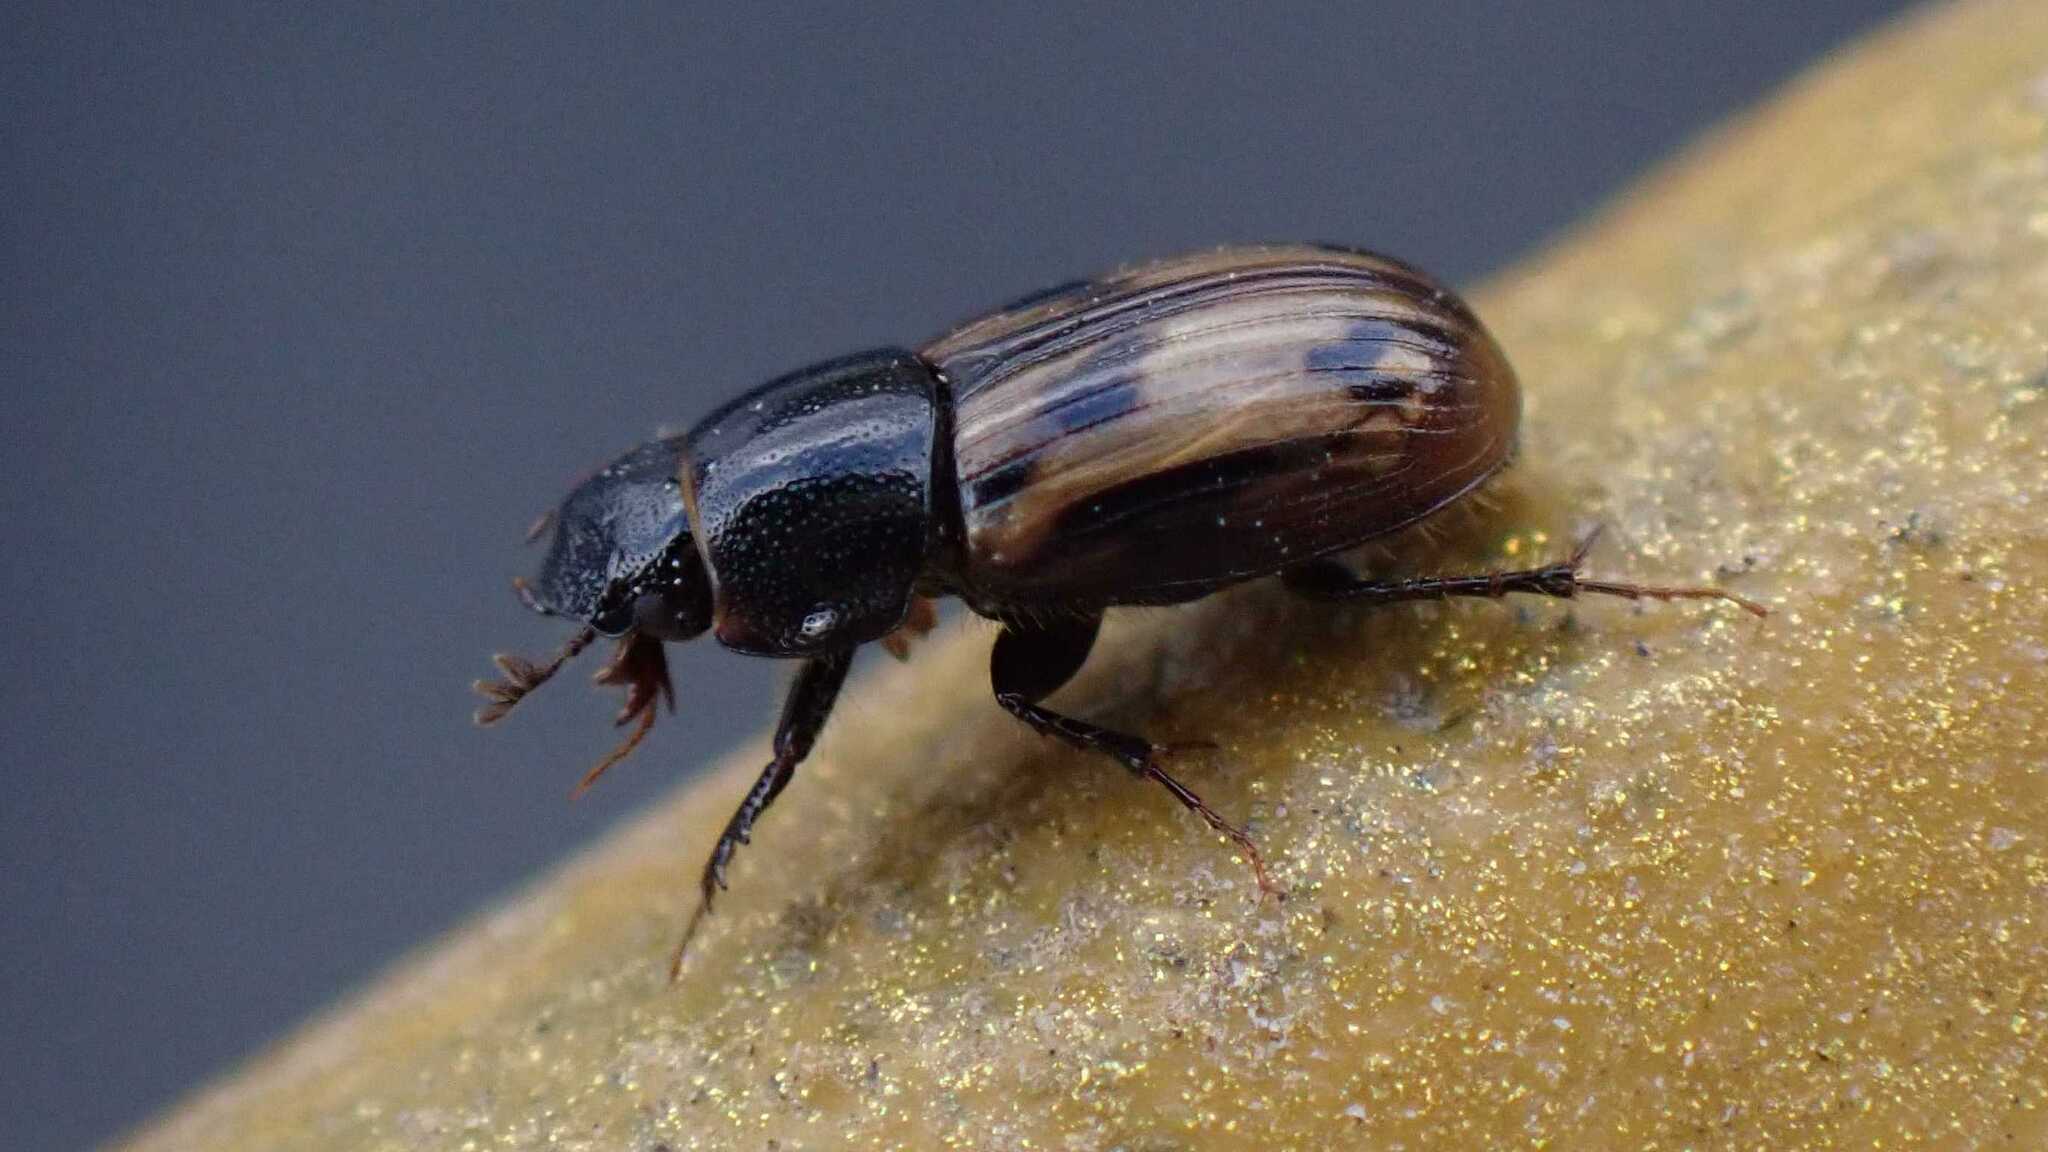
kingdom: Animalia
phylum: Arthropoda
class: Insecta
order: Coleoptera
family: Scarabaeidae
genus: Chilothorax
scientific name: Chilothorax distinctus
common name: Maculated dung beetle
